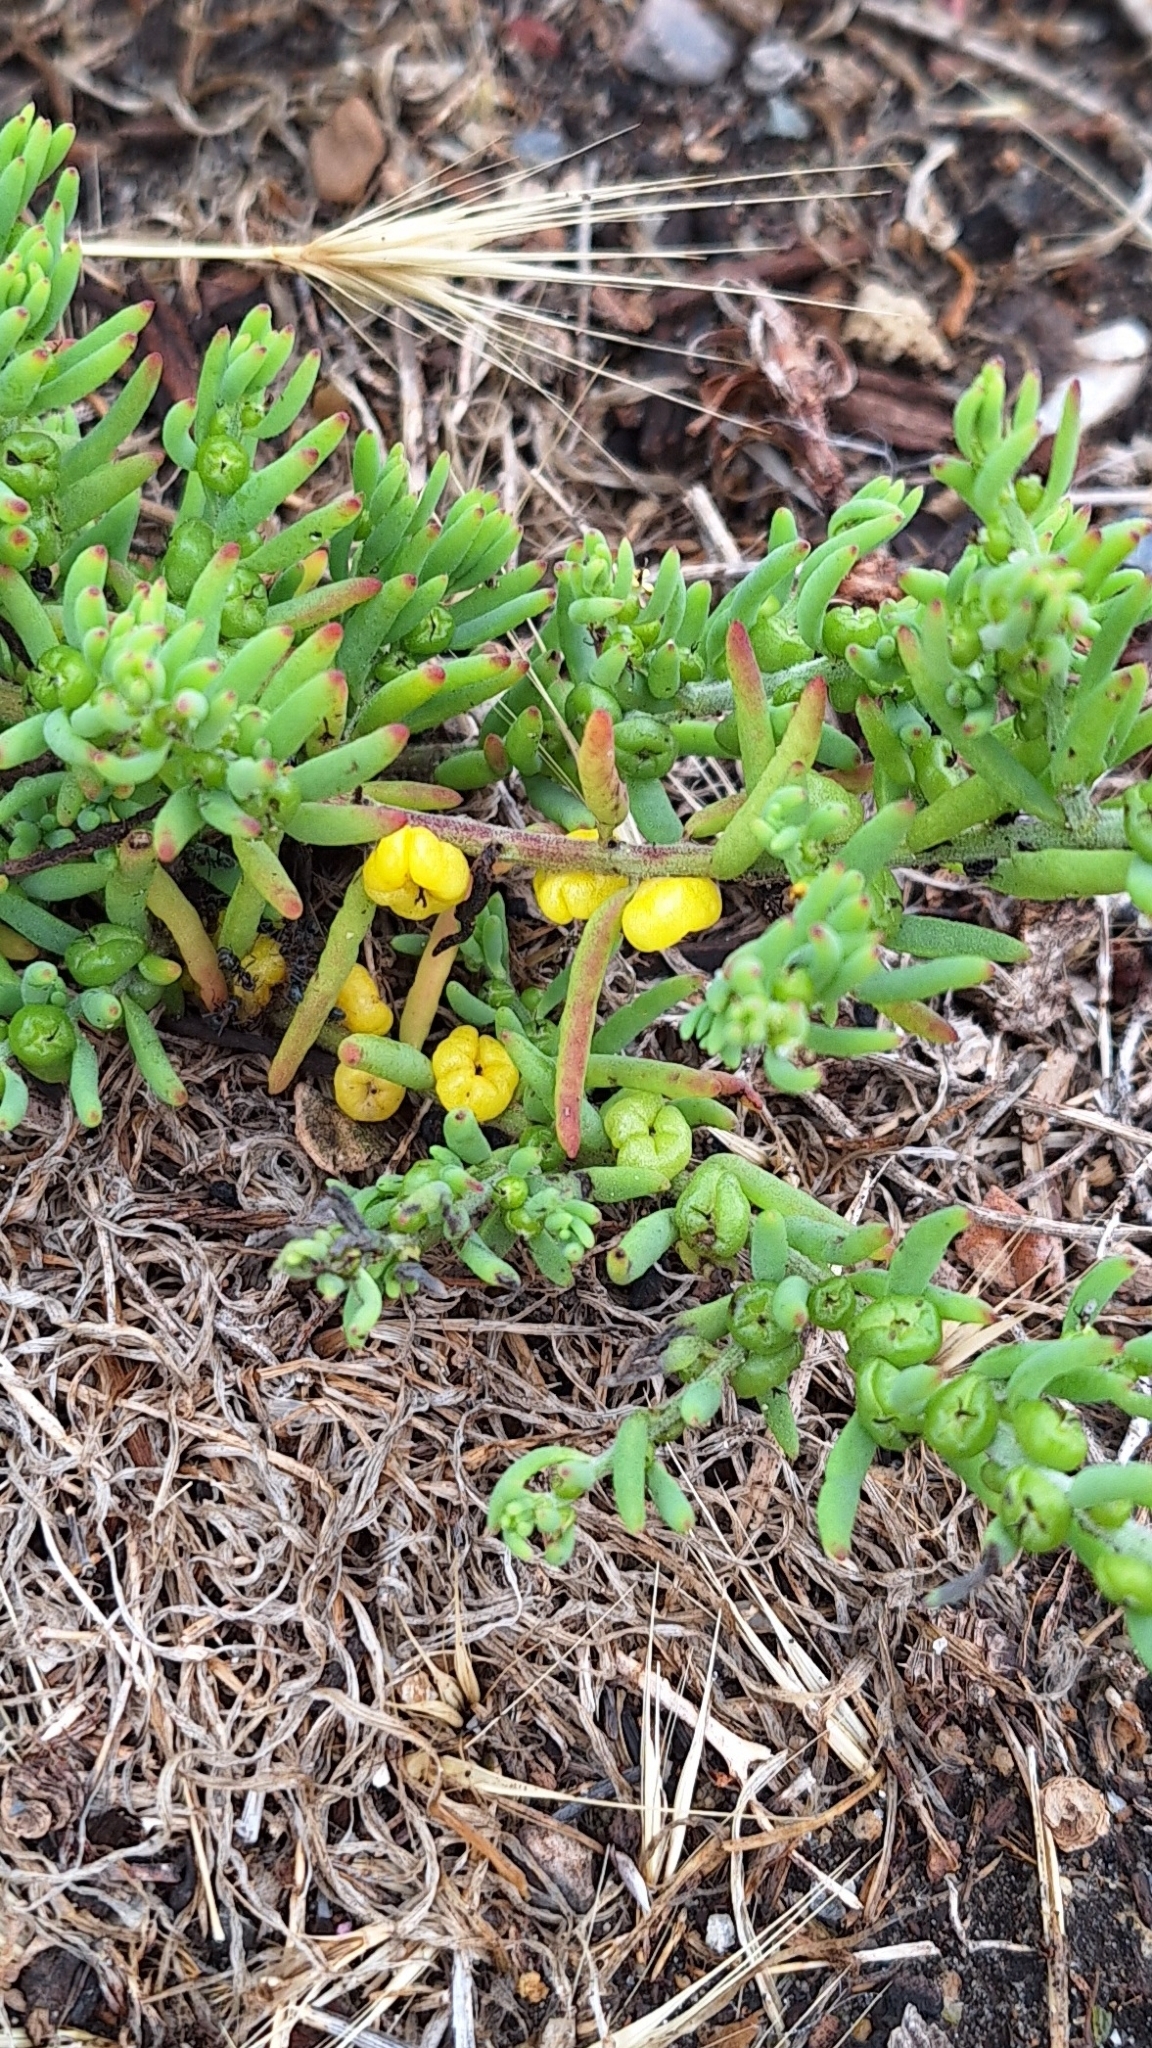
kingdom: Plantae
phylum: Tracheophyta
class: Magnoliopsida
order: Caryophyllales
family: Amaranthaceae
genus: Enchylaena
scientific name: Enchylaena tomentosa
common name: Ruby saltbush
